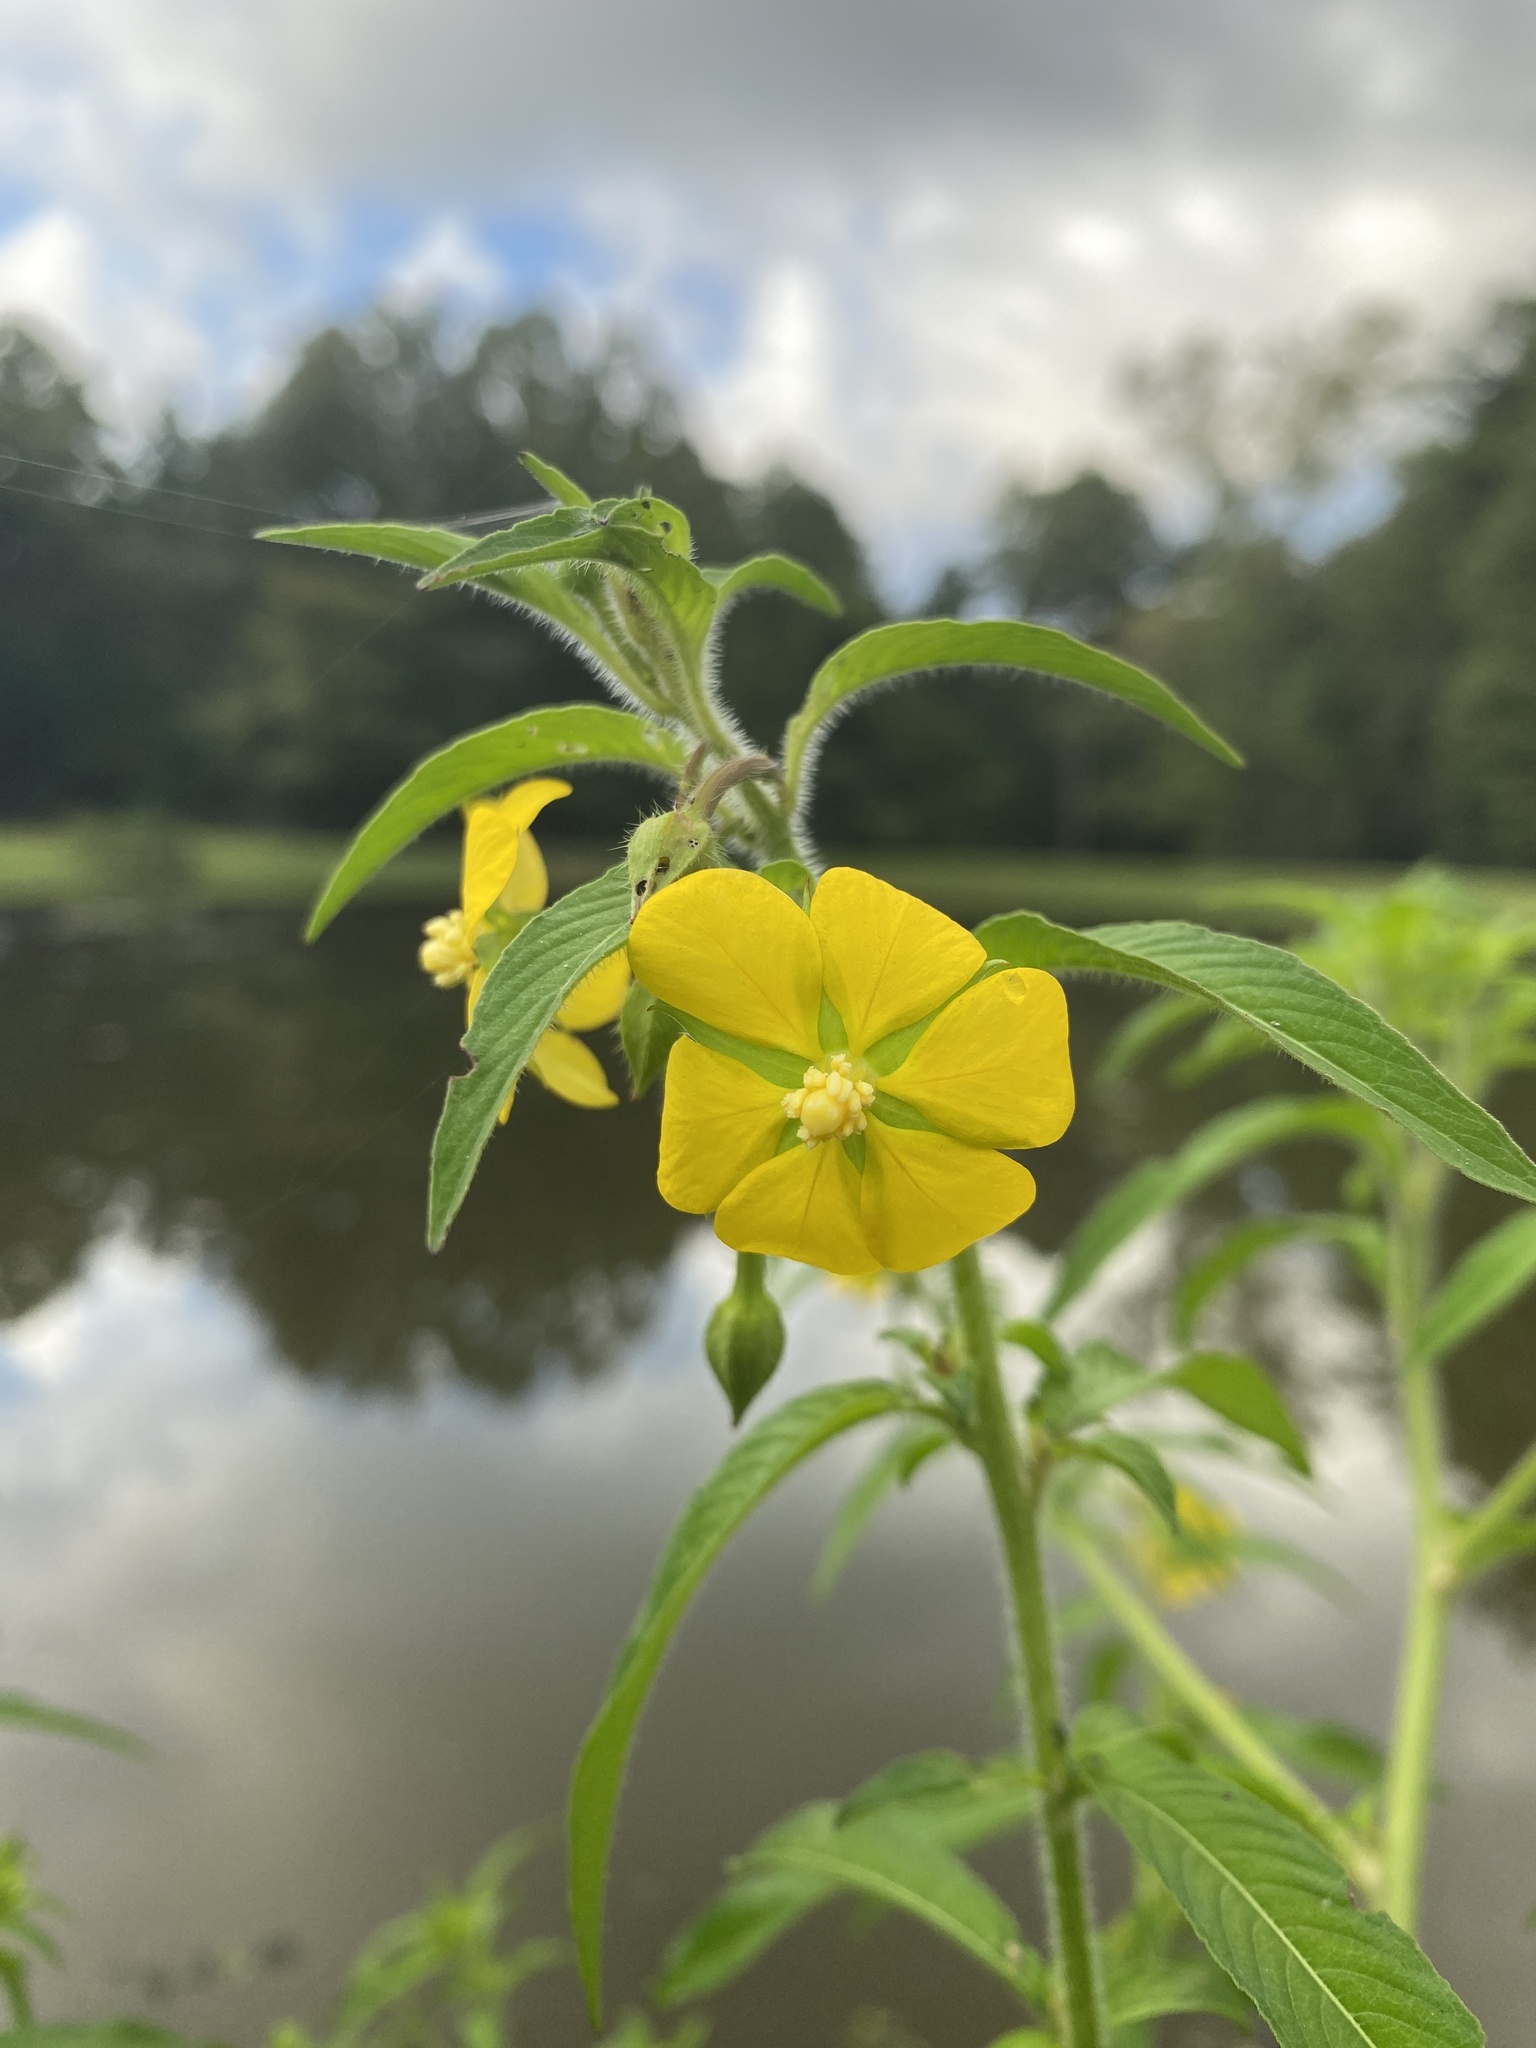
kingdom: Plantae
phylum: Tracheophyta
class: Magnoliopsida
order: Myrtales
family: Onagraceae
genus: Ludwigia
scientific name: Ludwigia leptocarpa
